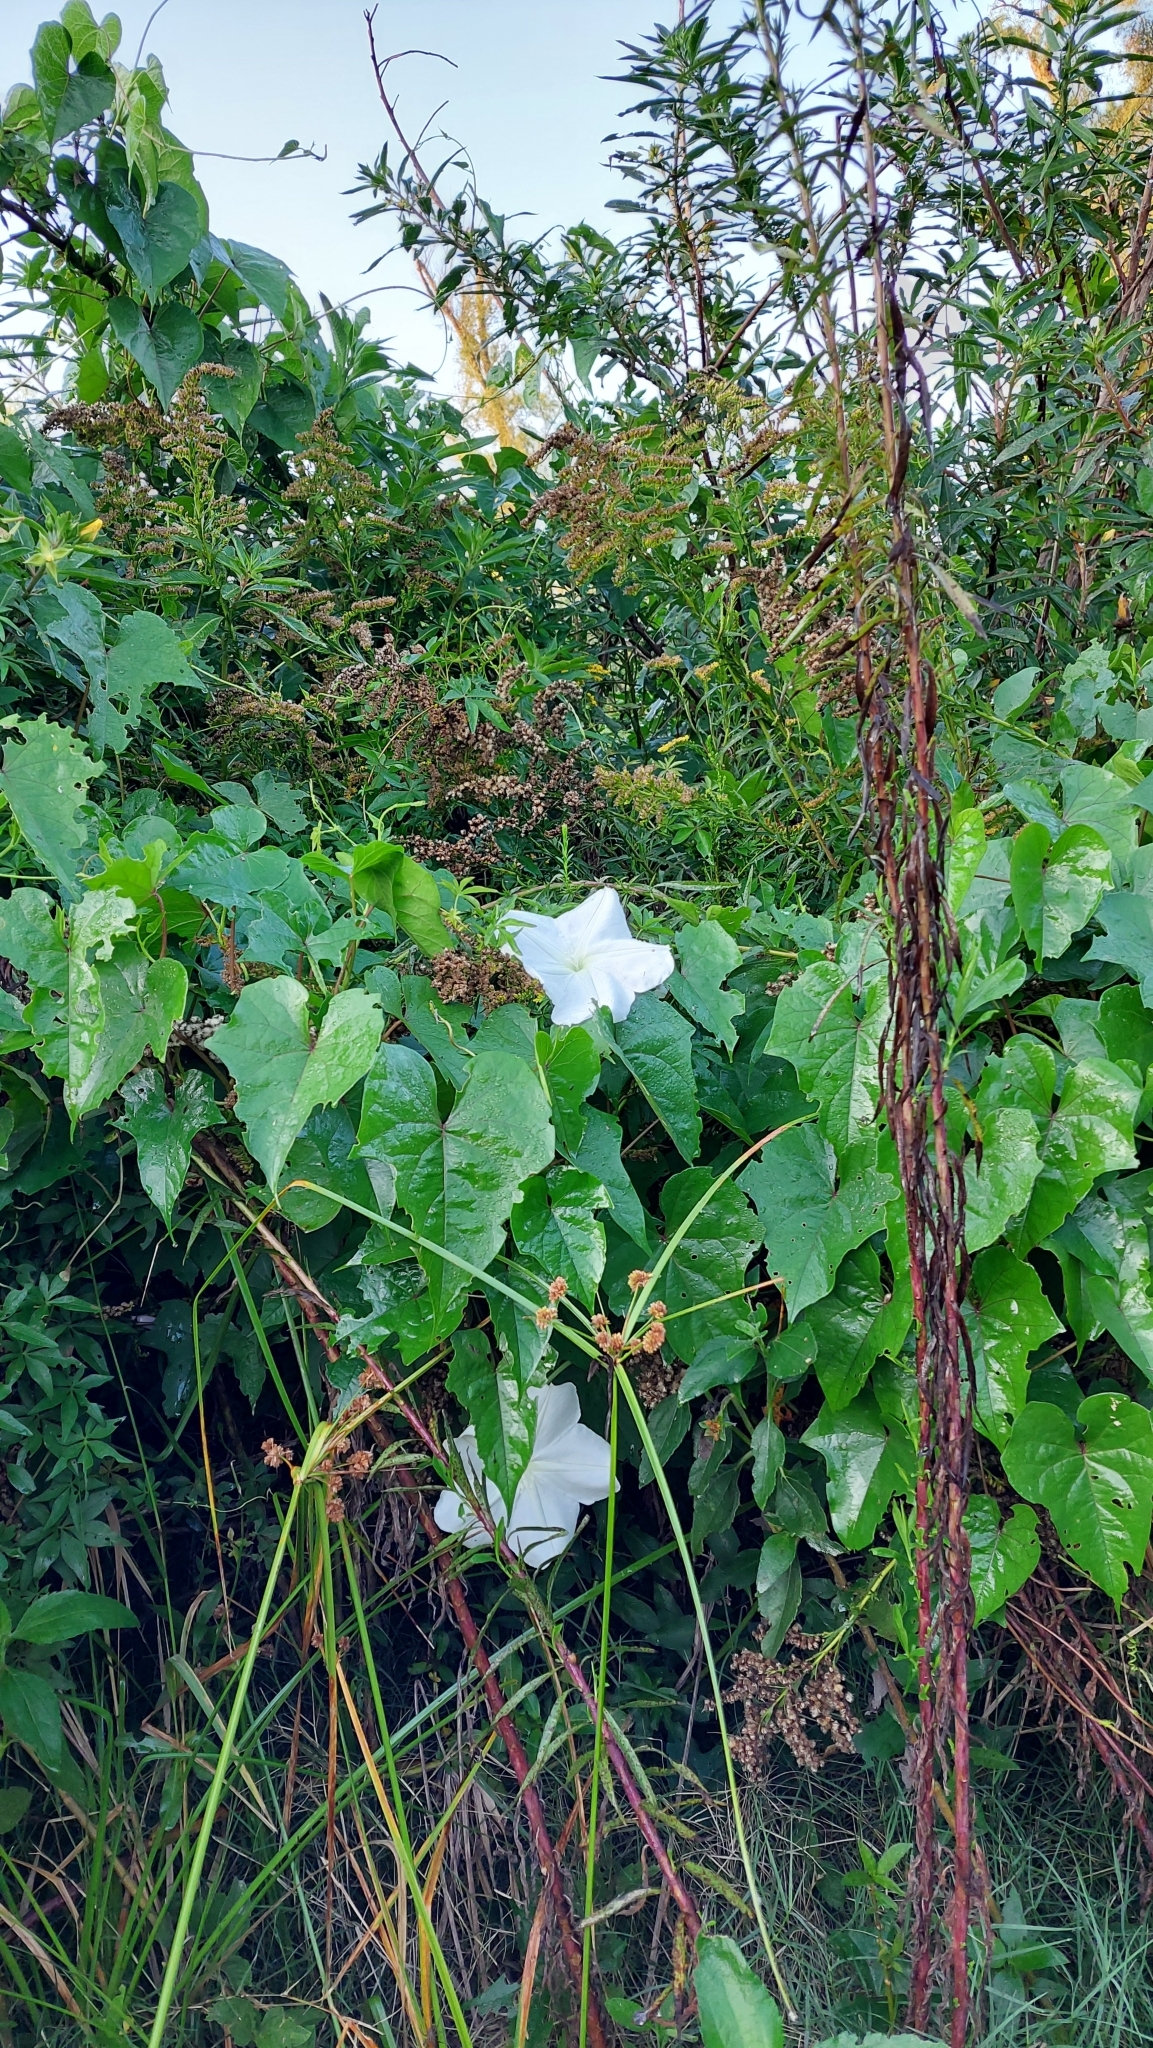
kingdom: Plantae
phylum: Tracheophyta
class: Magnoliopsida
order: Solanales
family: Convolvulaceae
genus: Ipomoea
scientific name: Ipomoea alba
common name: Moonflower
